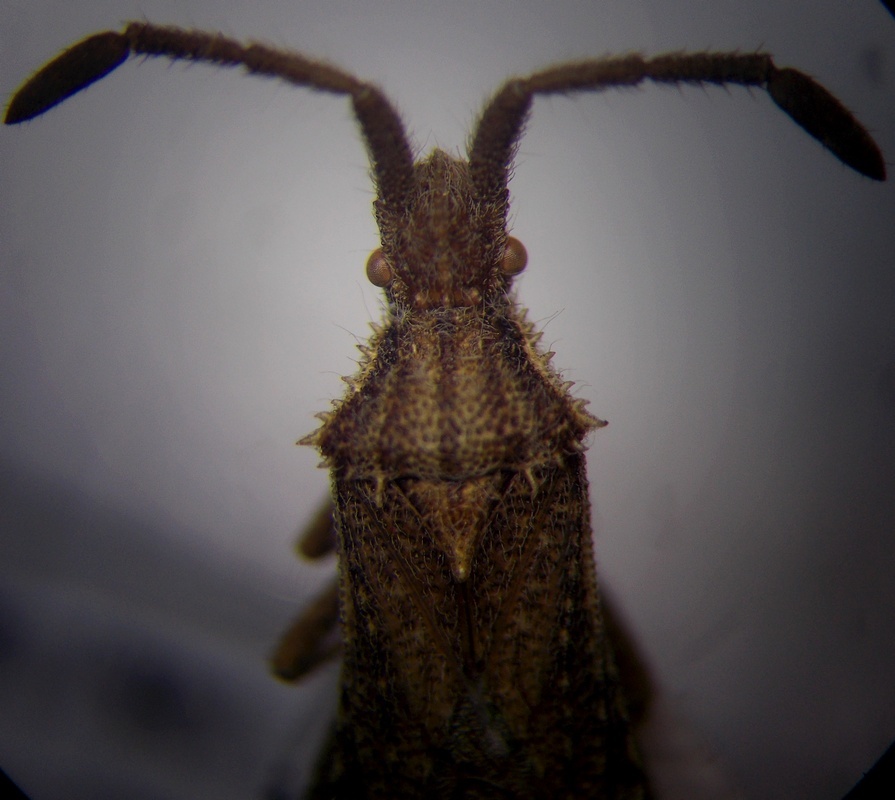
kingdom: Animalia
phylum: Arthropoda
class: Insecta
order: Hemiptera
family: Coreidae
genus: Coriomeris
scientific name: Coriomeris hirticornis
